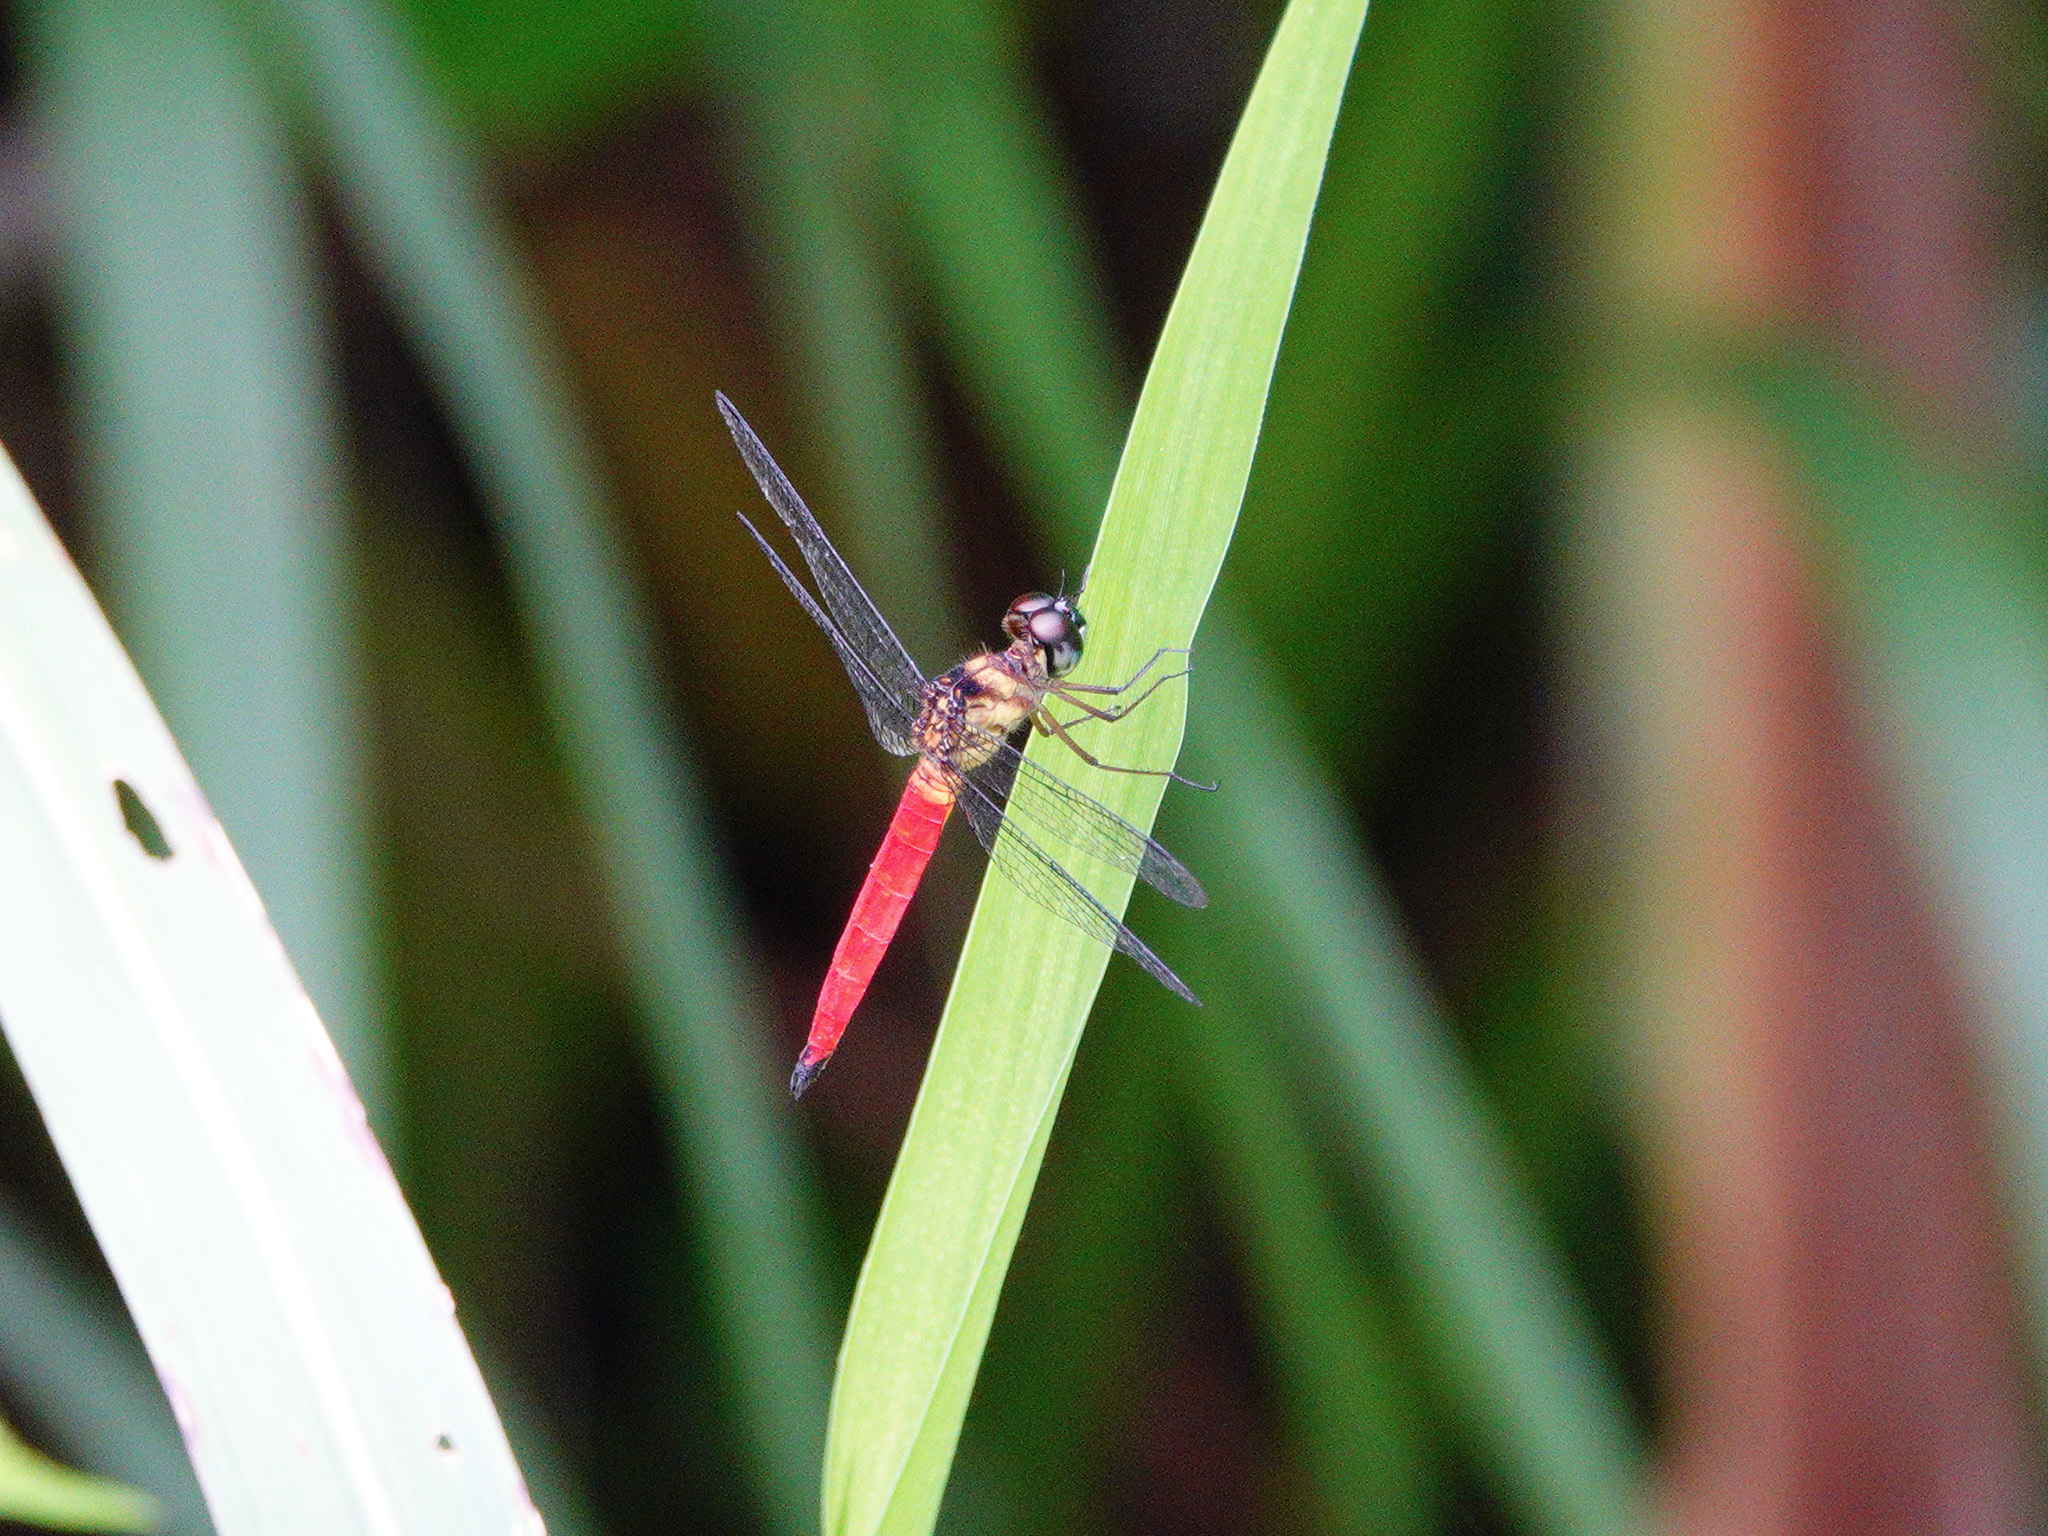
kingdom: Animalia
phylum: Arthropoda
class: Insecta
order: Odonata
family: Libellulidae
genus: Orchithemis
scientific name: Orchithemis pulcherrima
